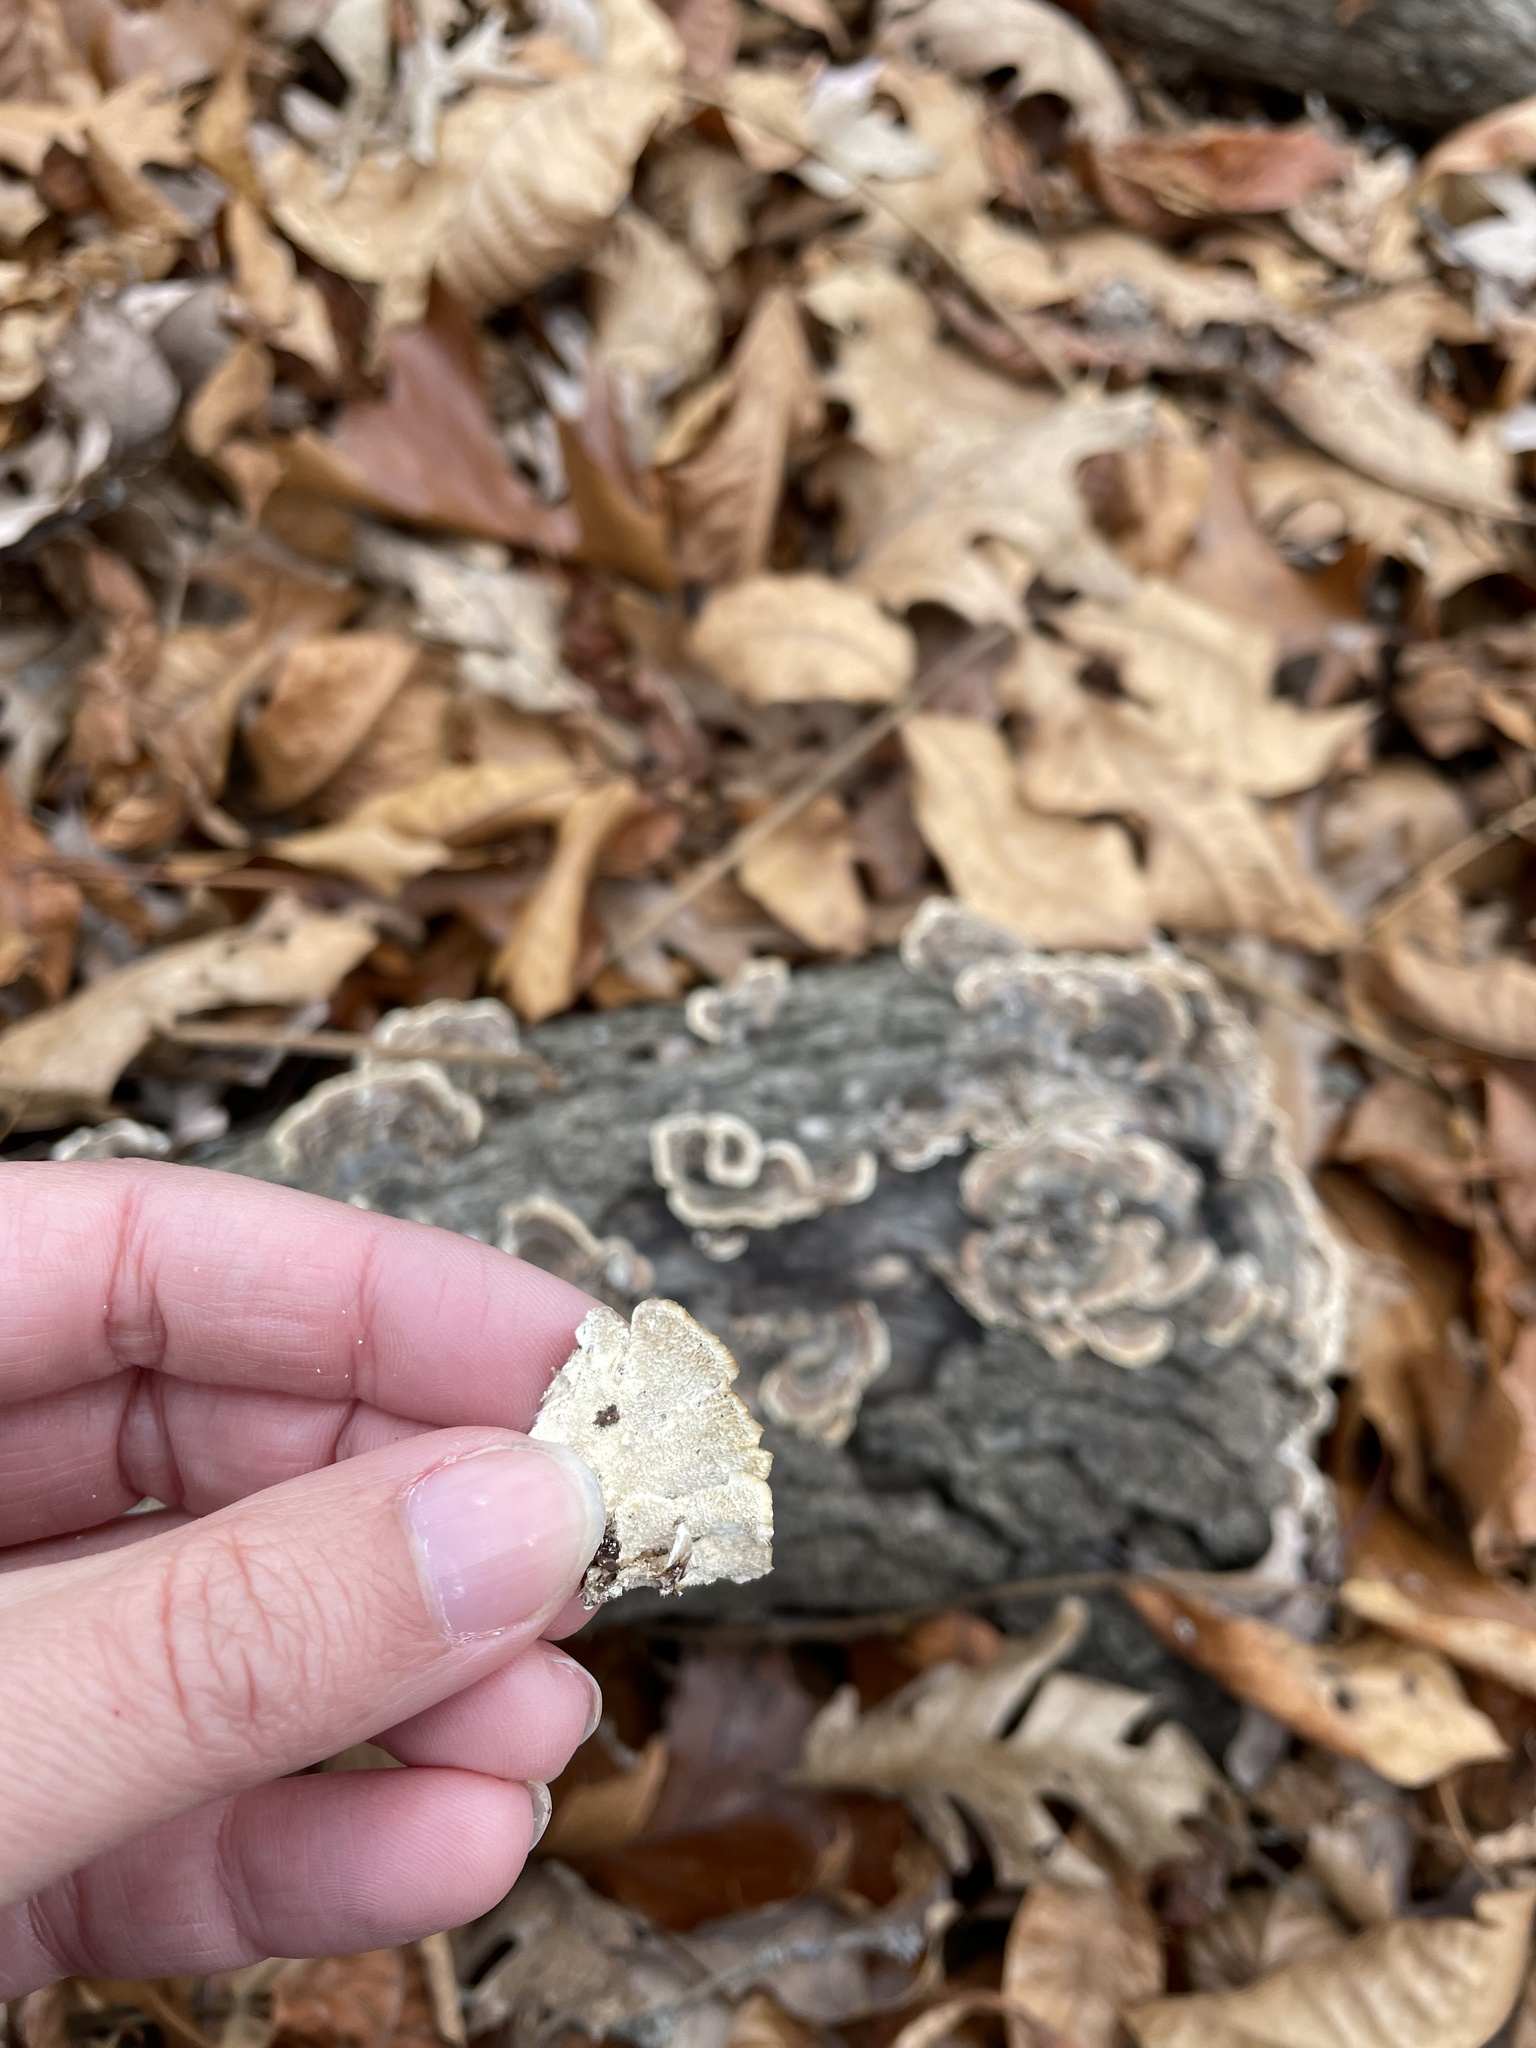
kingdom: Fungi
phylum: Basidiomycota
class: Agaricomycetes
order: Polyporales
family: Polyporaceae
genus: Trametes
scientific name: Trametes versicolor
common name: Turkeytail
